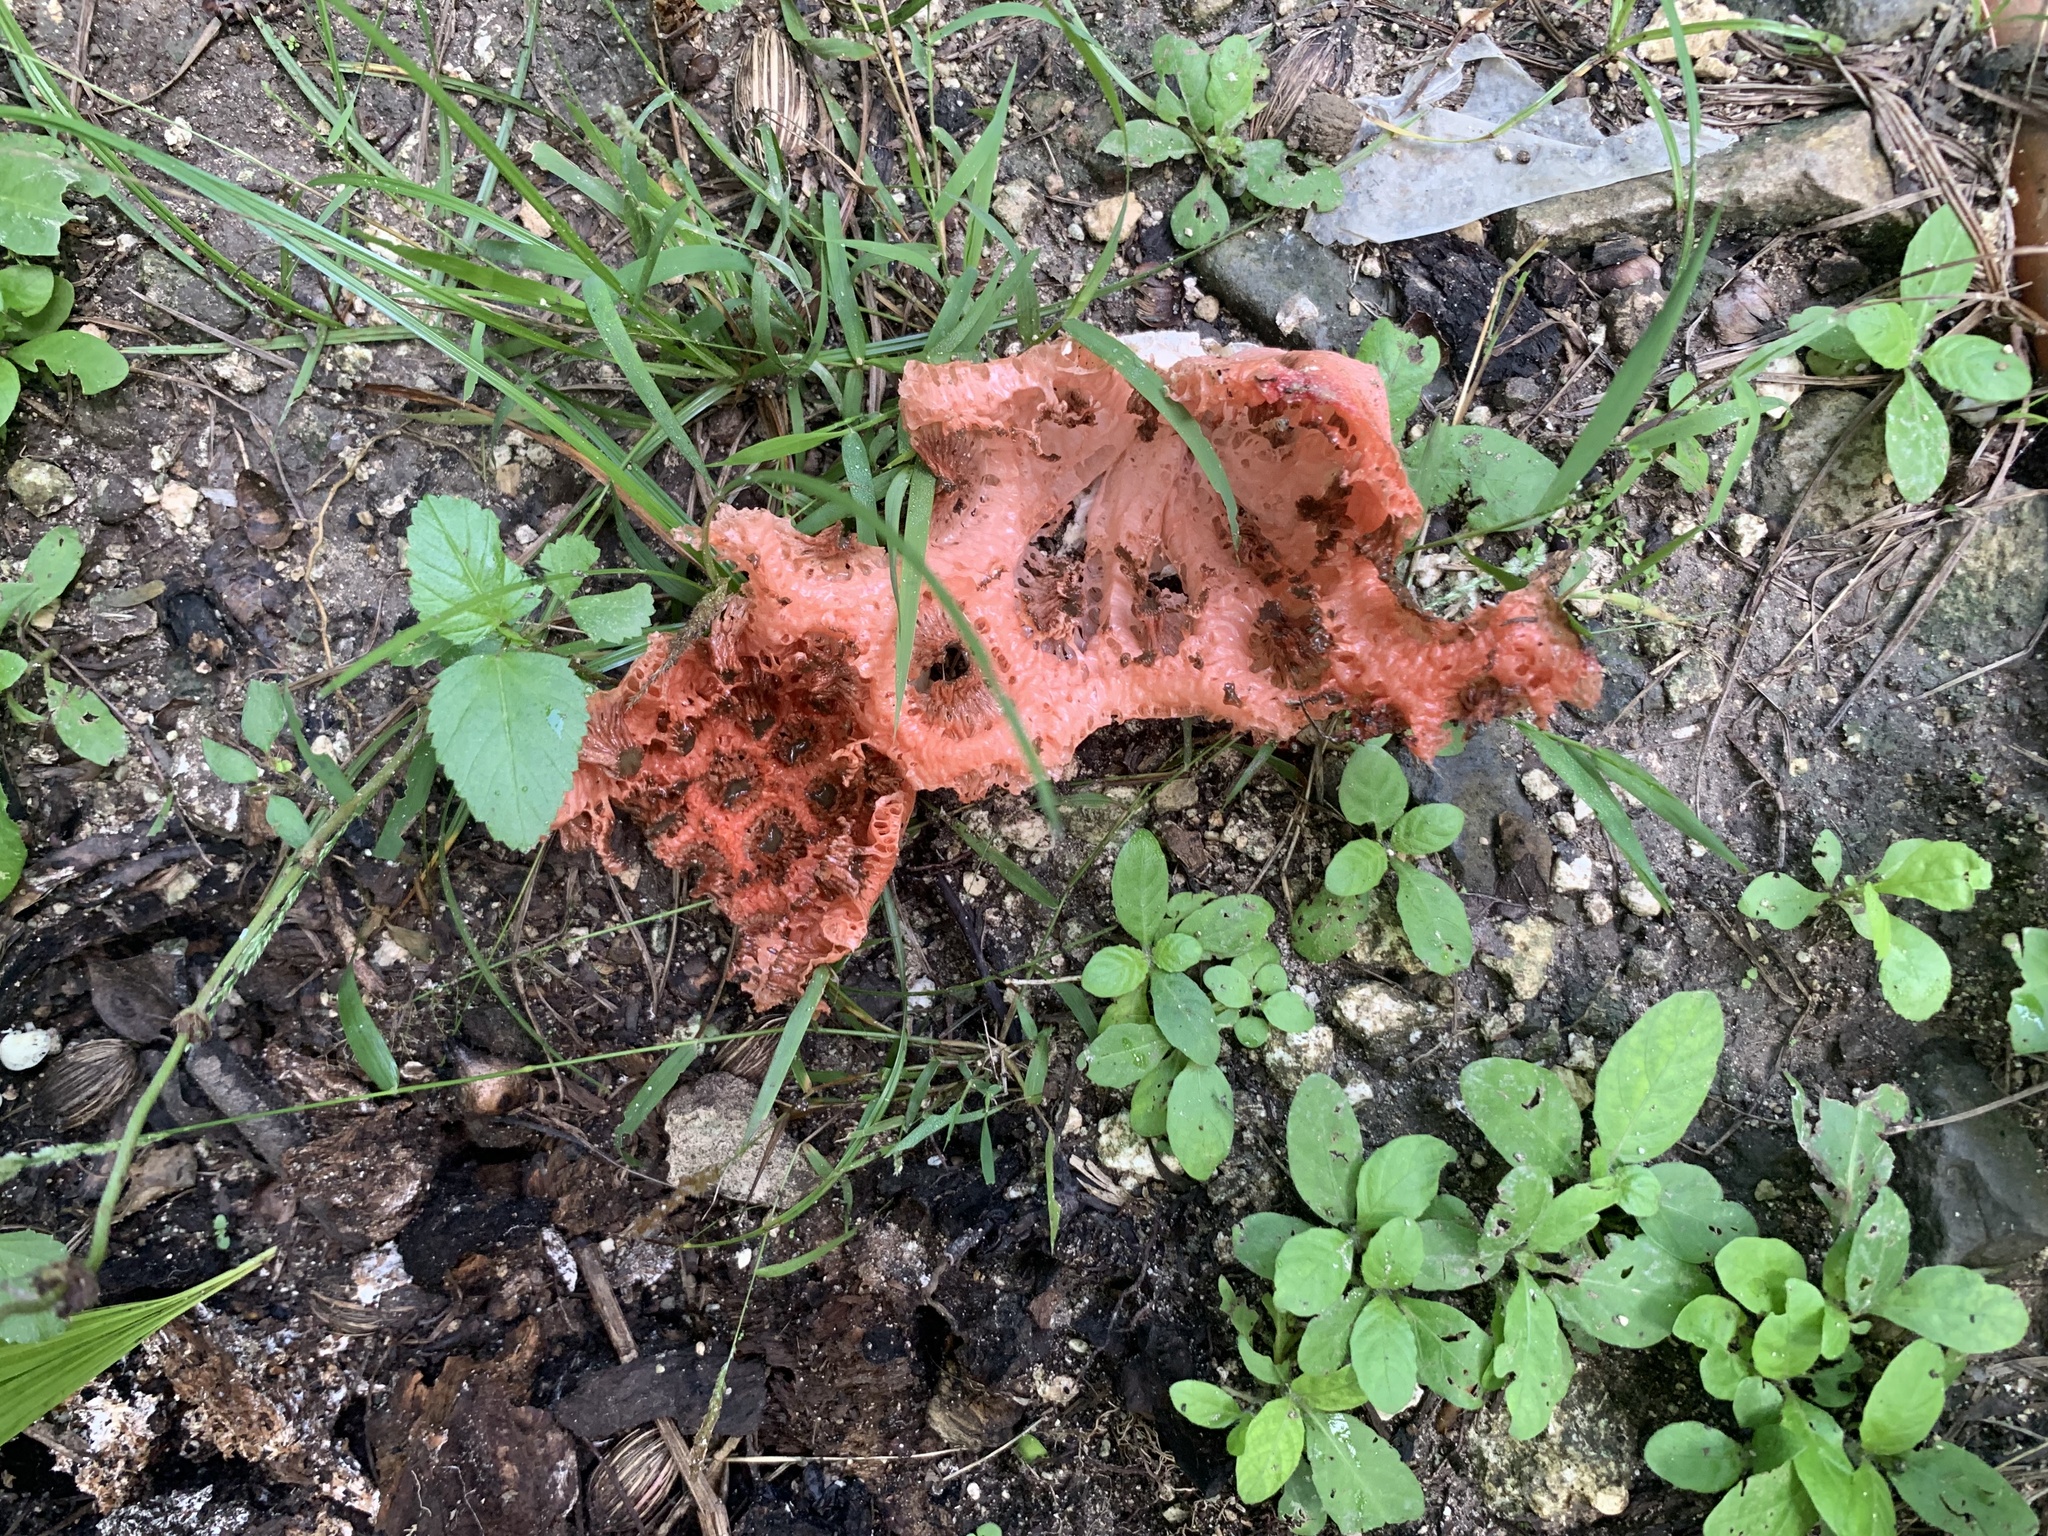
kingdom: Fungi
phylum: Basidiomycota
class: Agaricomycetes
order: Phallales
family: Phallaceae
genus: Clathrus
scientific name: Clathrus crispatus
